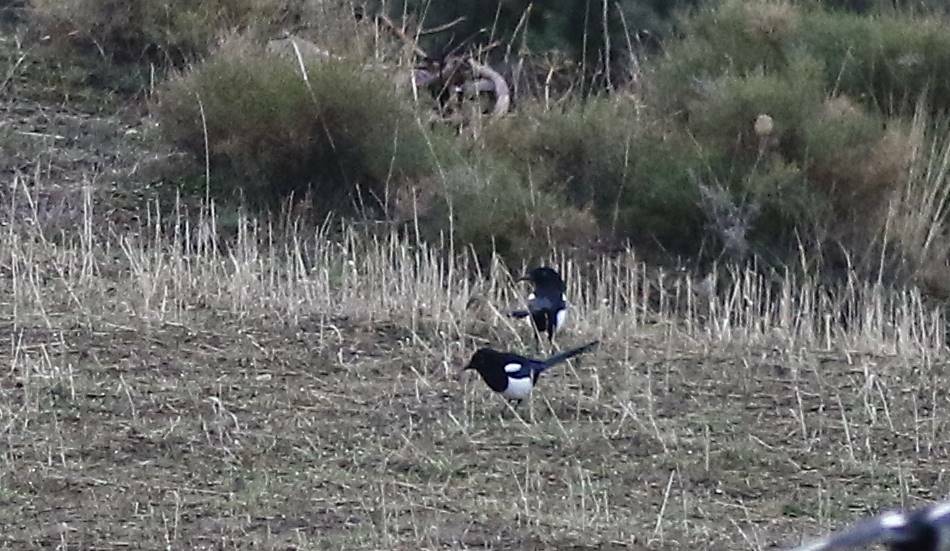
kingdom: Animalia
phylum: Chordata
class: Aves
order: Passeriformes
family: Corvidae
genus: Pica
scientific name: Pica mauritanica
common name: Maghreb magpie
